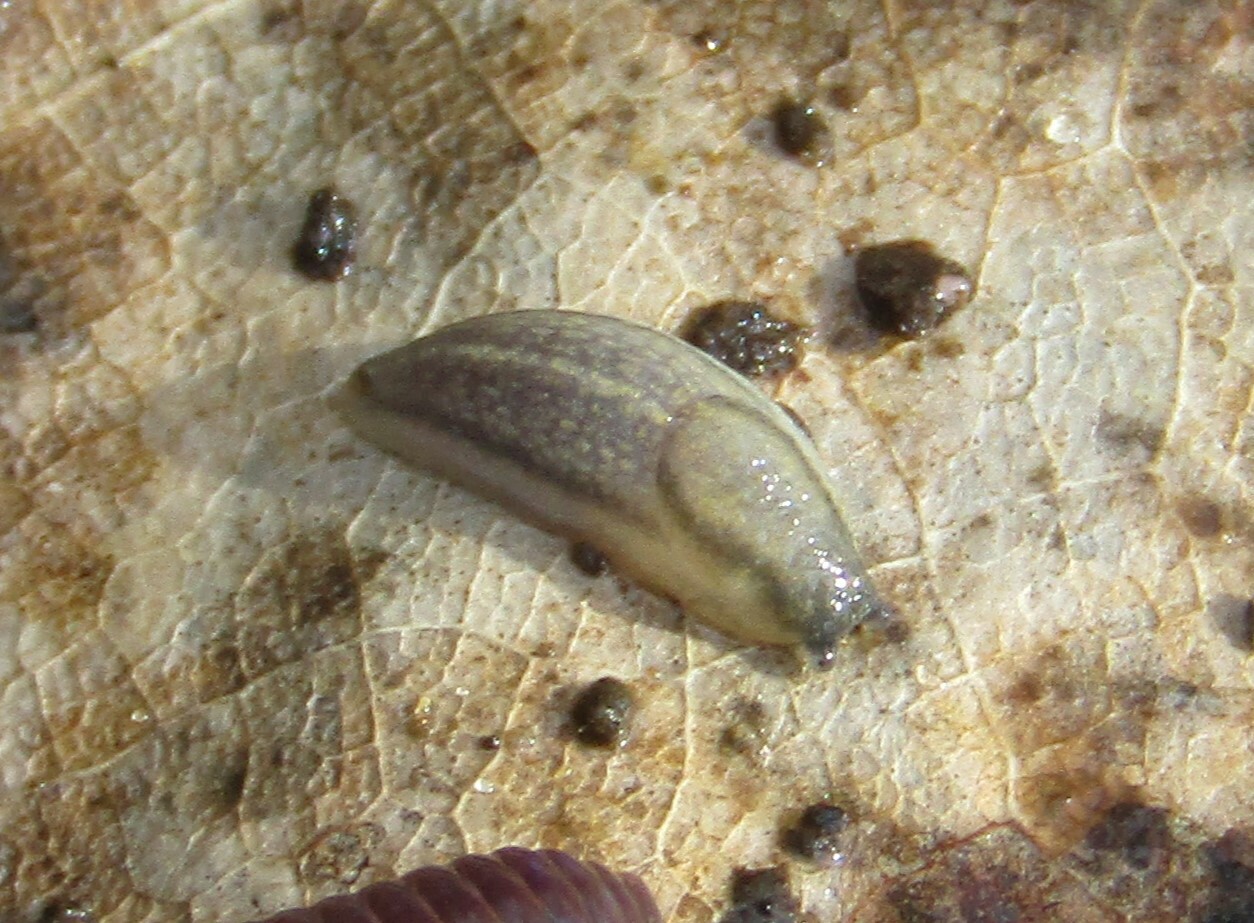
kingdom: Animalia
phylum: Mollusca
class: Gastropoda
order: Stylommatophora
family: Arionidae
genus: Arion
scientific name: Arion fasciatus
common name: Orange-banded arion
